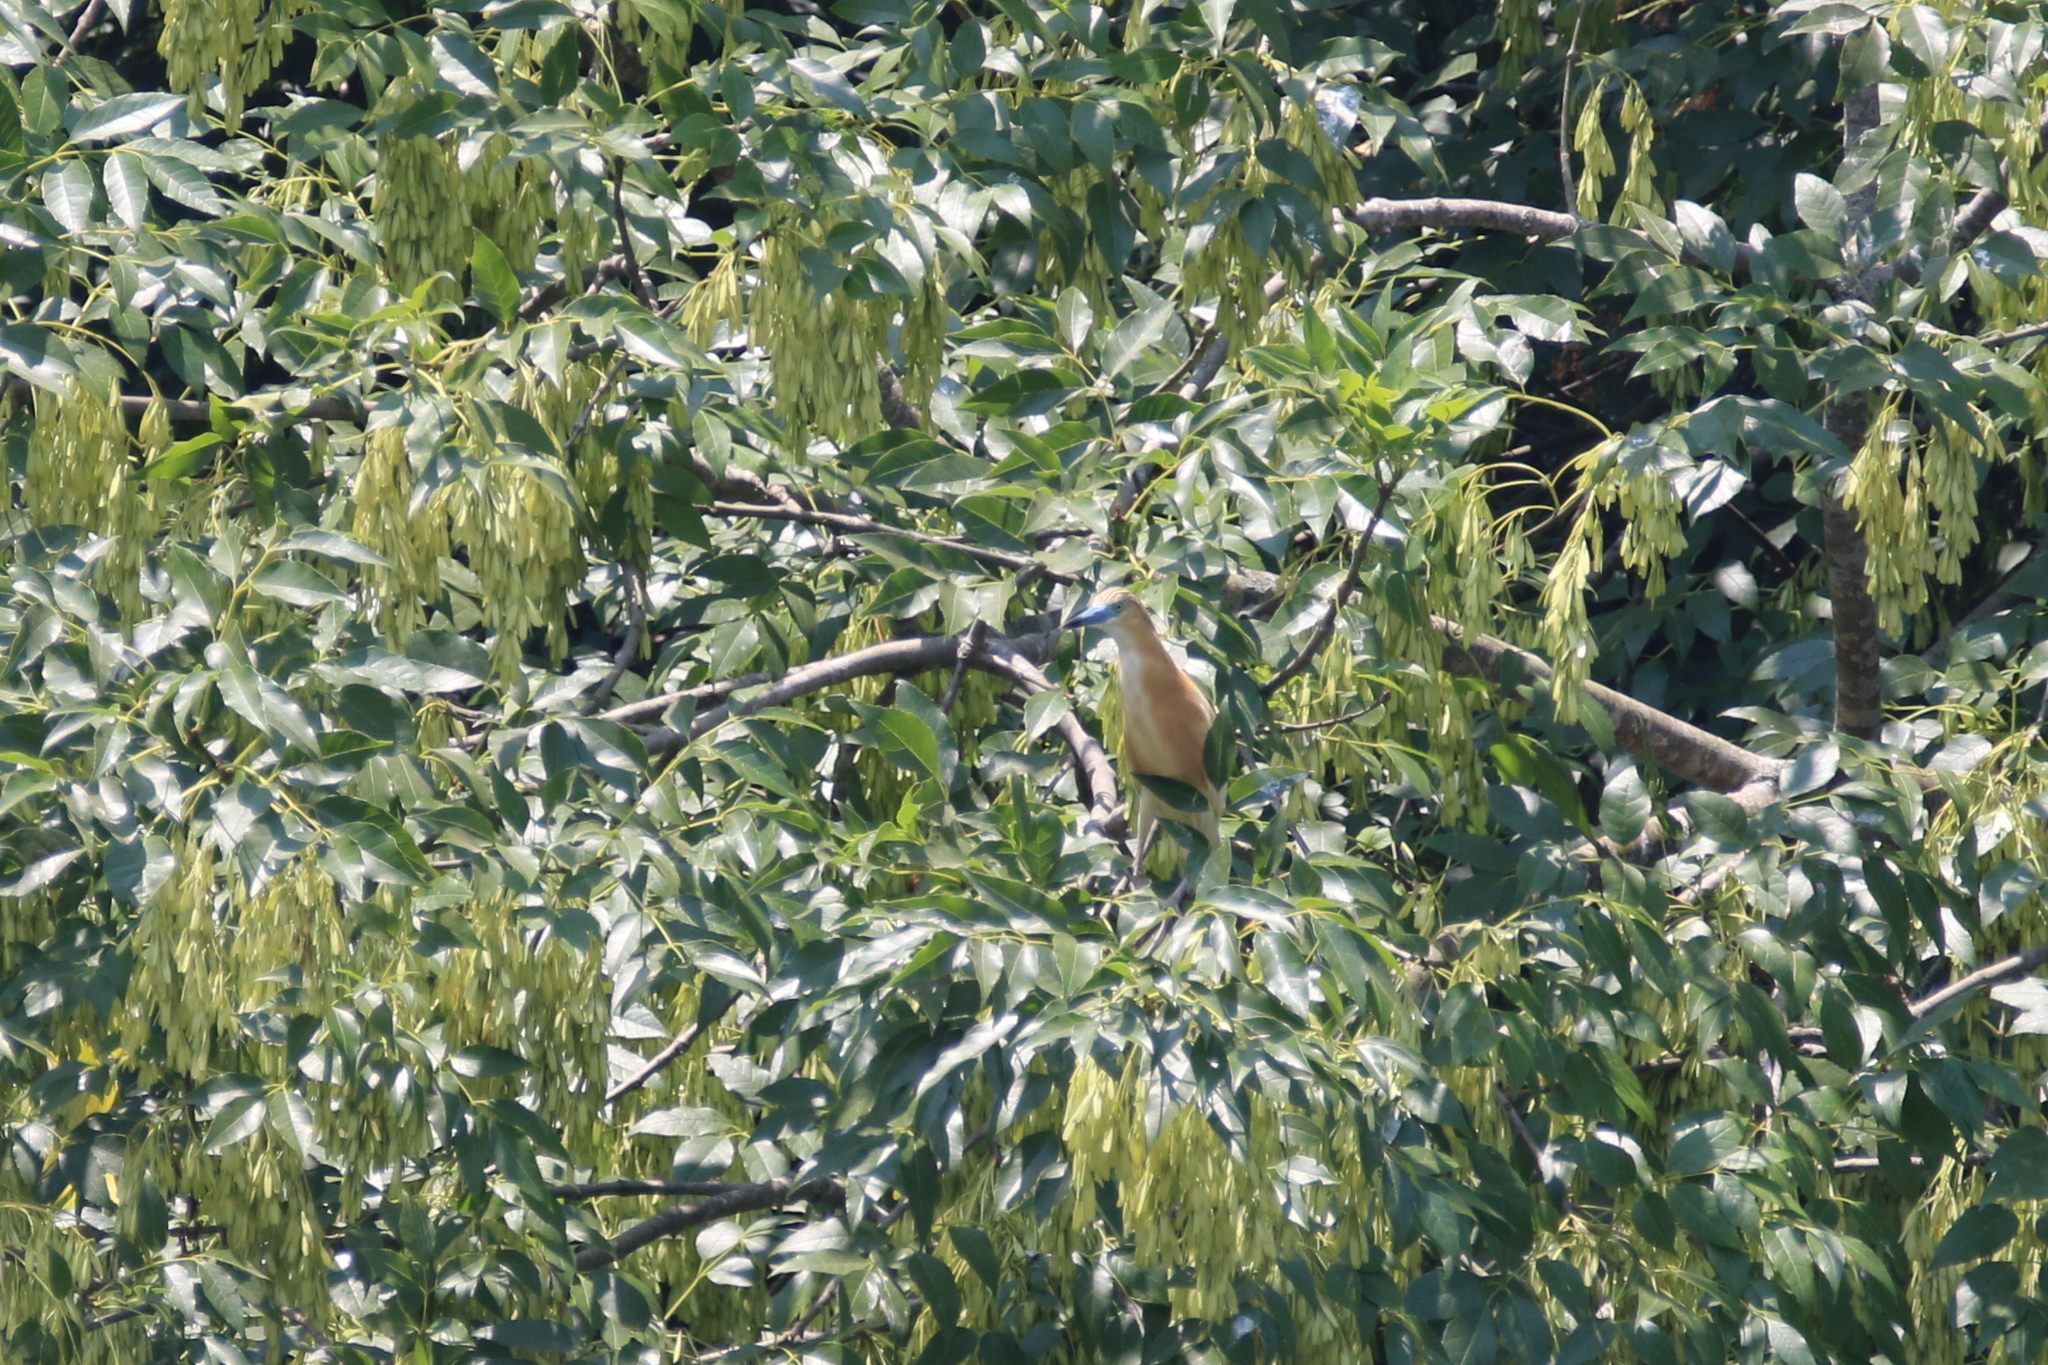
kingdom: Animalia
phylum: Chordata
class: Aves
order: Pelecaniformes
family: Ardeidae
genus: Ardeola
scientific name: Ardeola ralloides
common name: Squacco heron
